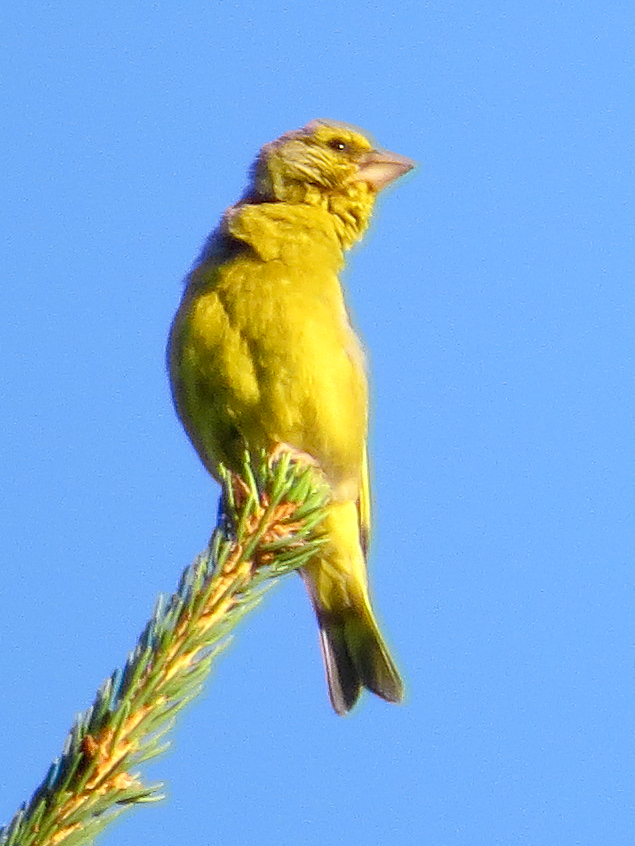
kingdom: Plantae
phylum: Tracheophyta
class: Liliopsida
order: Poales
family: Poaceae
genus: Chloris
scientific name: Chloris chloris
